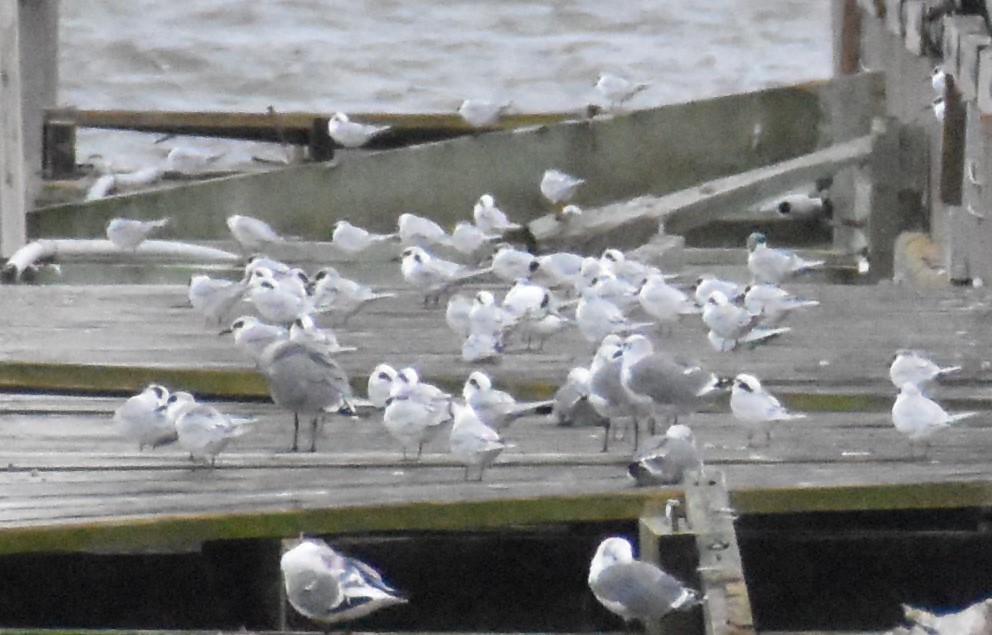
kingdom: Animalia
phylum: Chordata
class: Aves
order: Charadriiformes
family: Laridae
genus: Sterna
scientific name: Sterna forsteri
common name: Forster's tern
